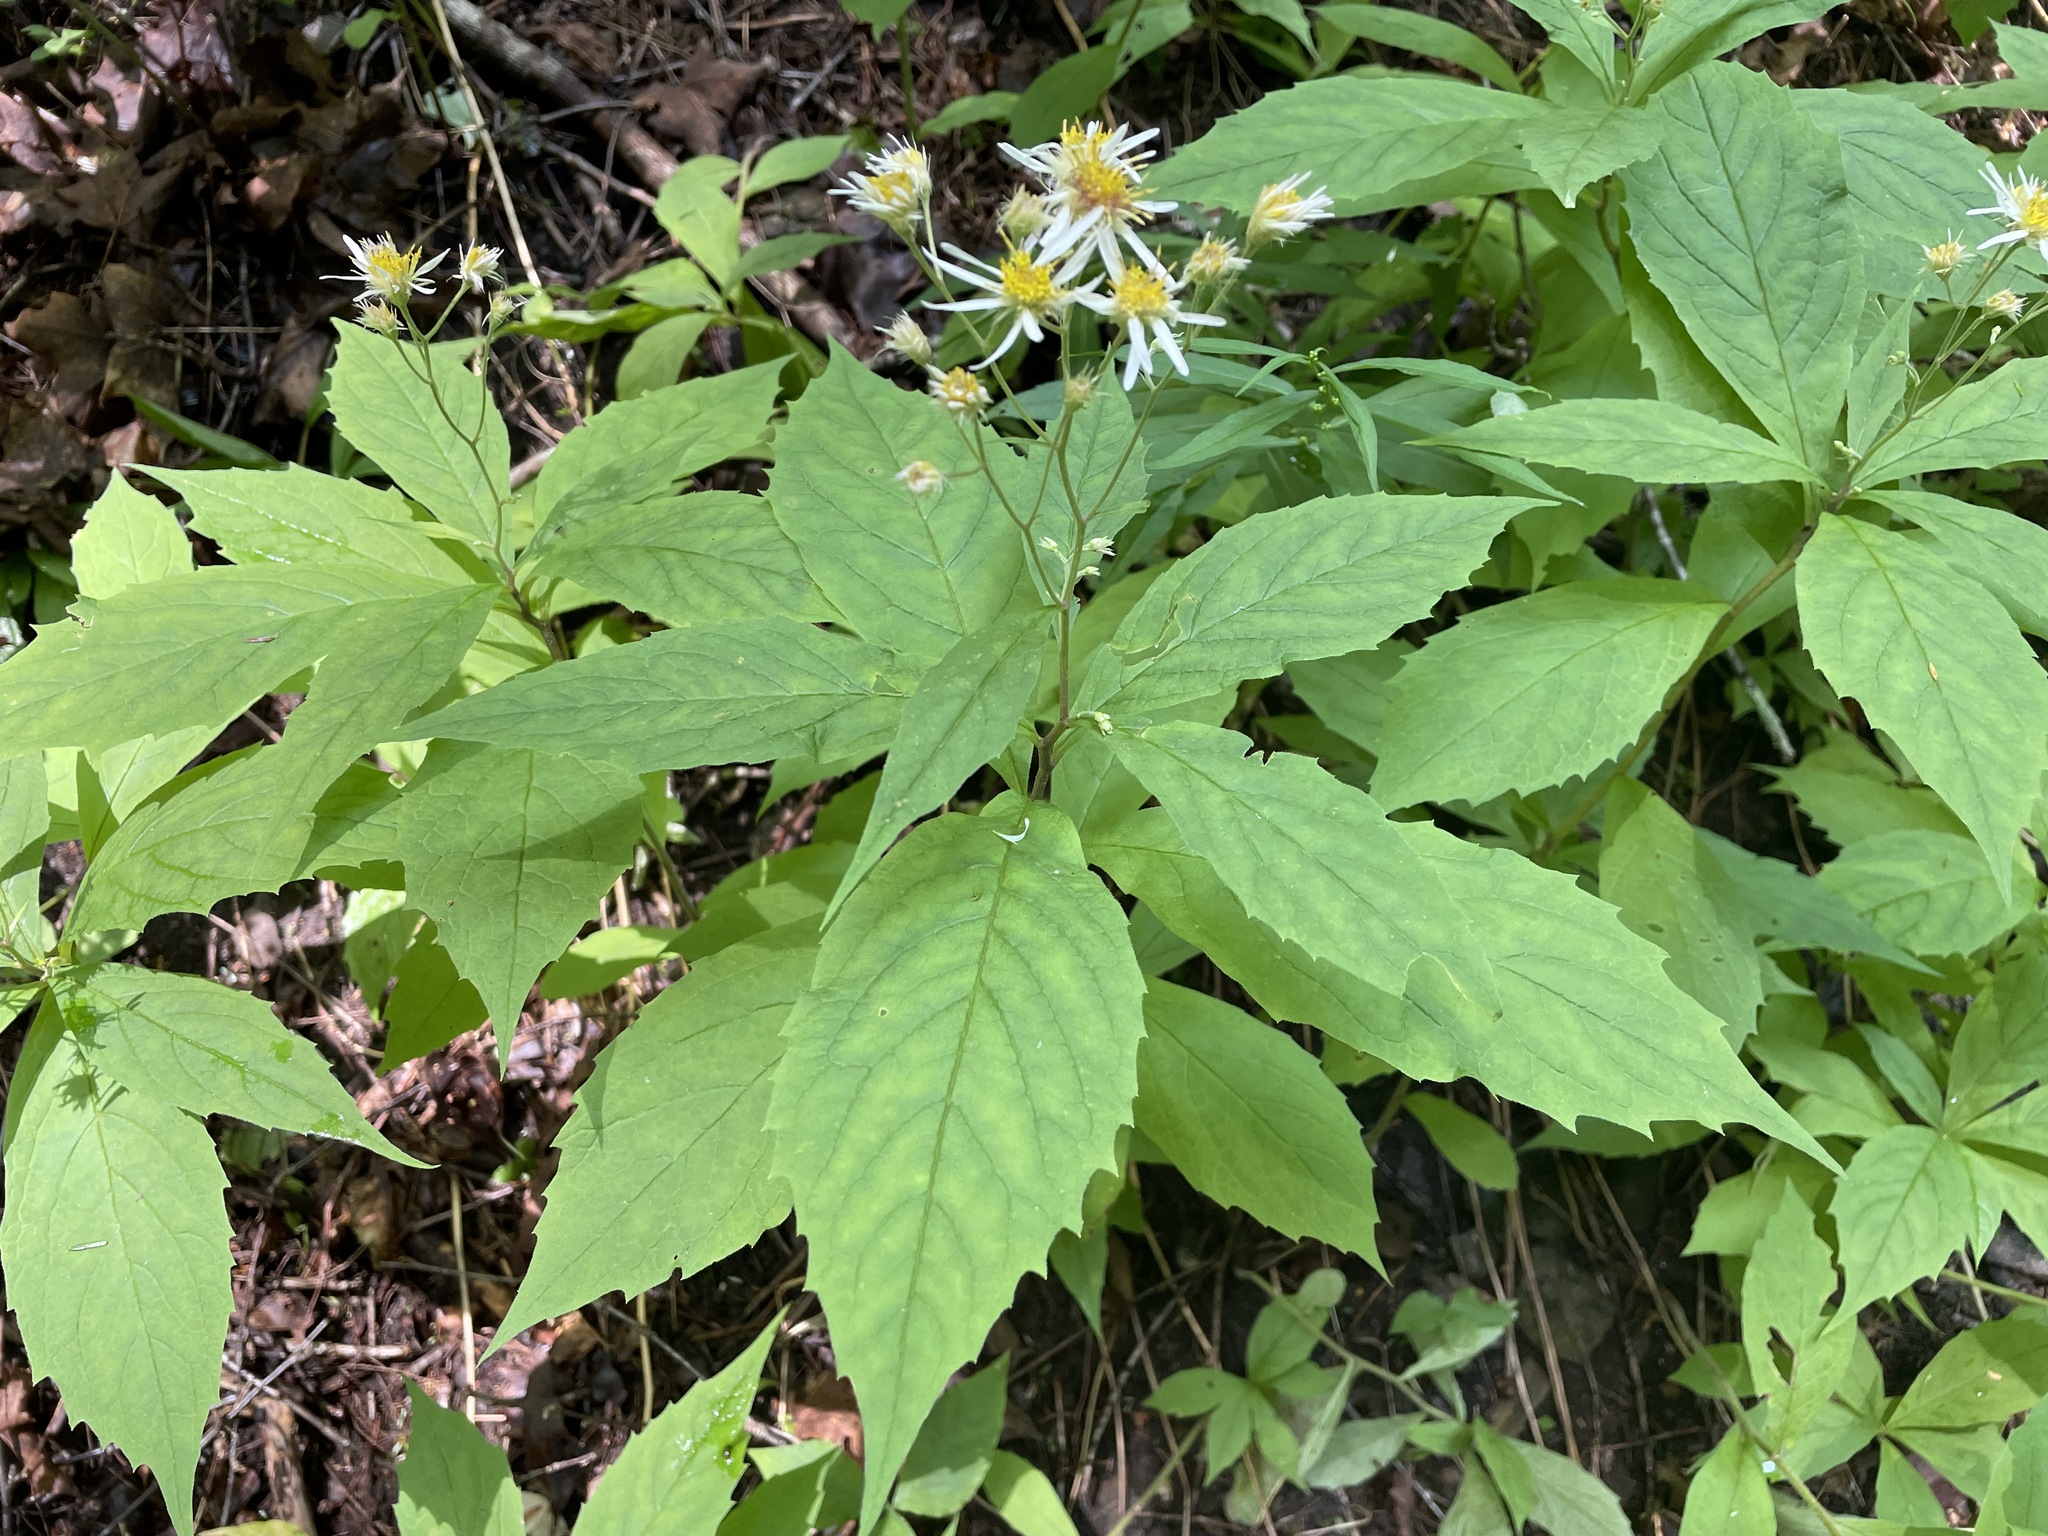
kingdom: Plantae
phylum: Tracheophyta
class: Magnoliopsida
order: Asterales
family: Asteraceae
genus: Oclemena
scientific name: Oclemena acuminata
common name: Mountain aster
